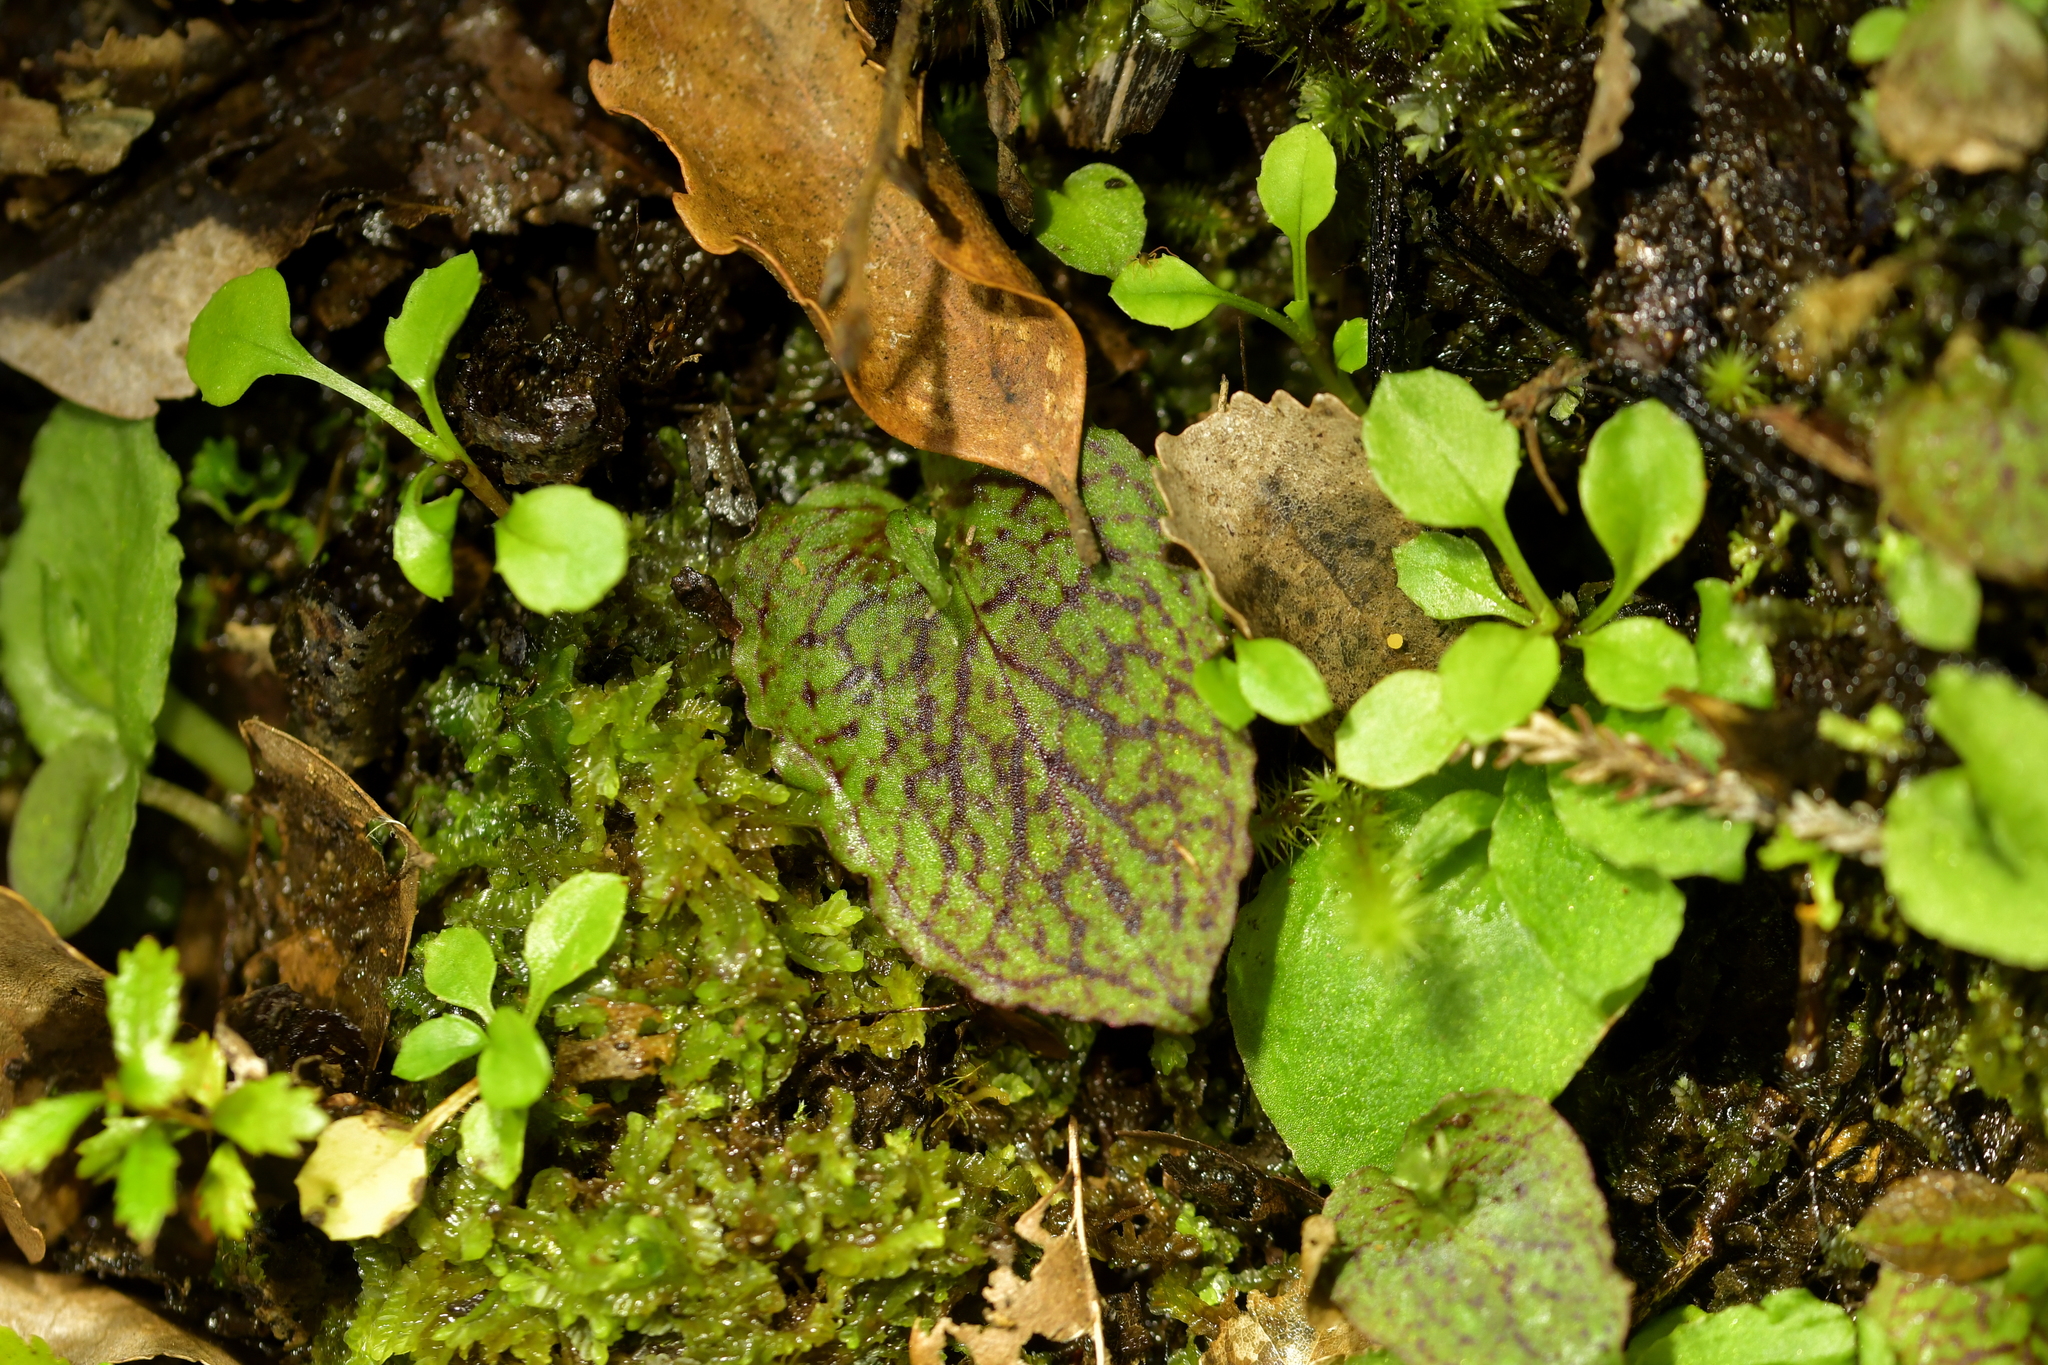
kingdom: Plantae
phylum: Tracheophyta
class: Liliopsida
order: Asparagales
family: Orchidaceae
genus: Corybas
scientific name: Corybas oblongus
